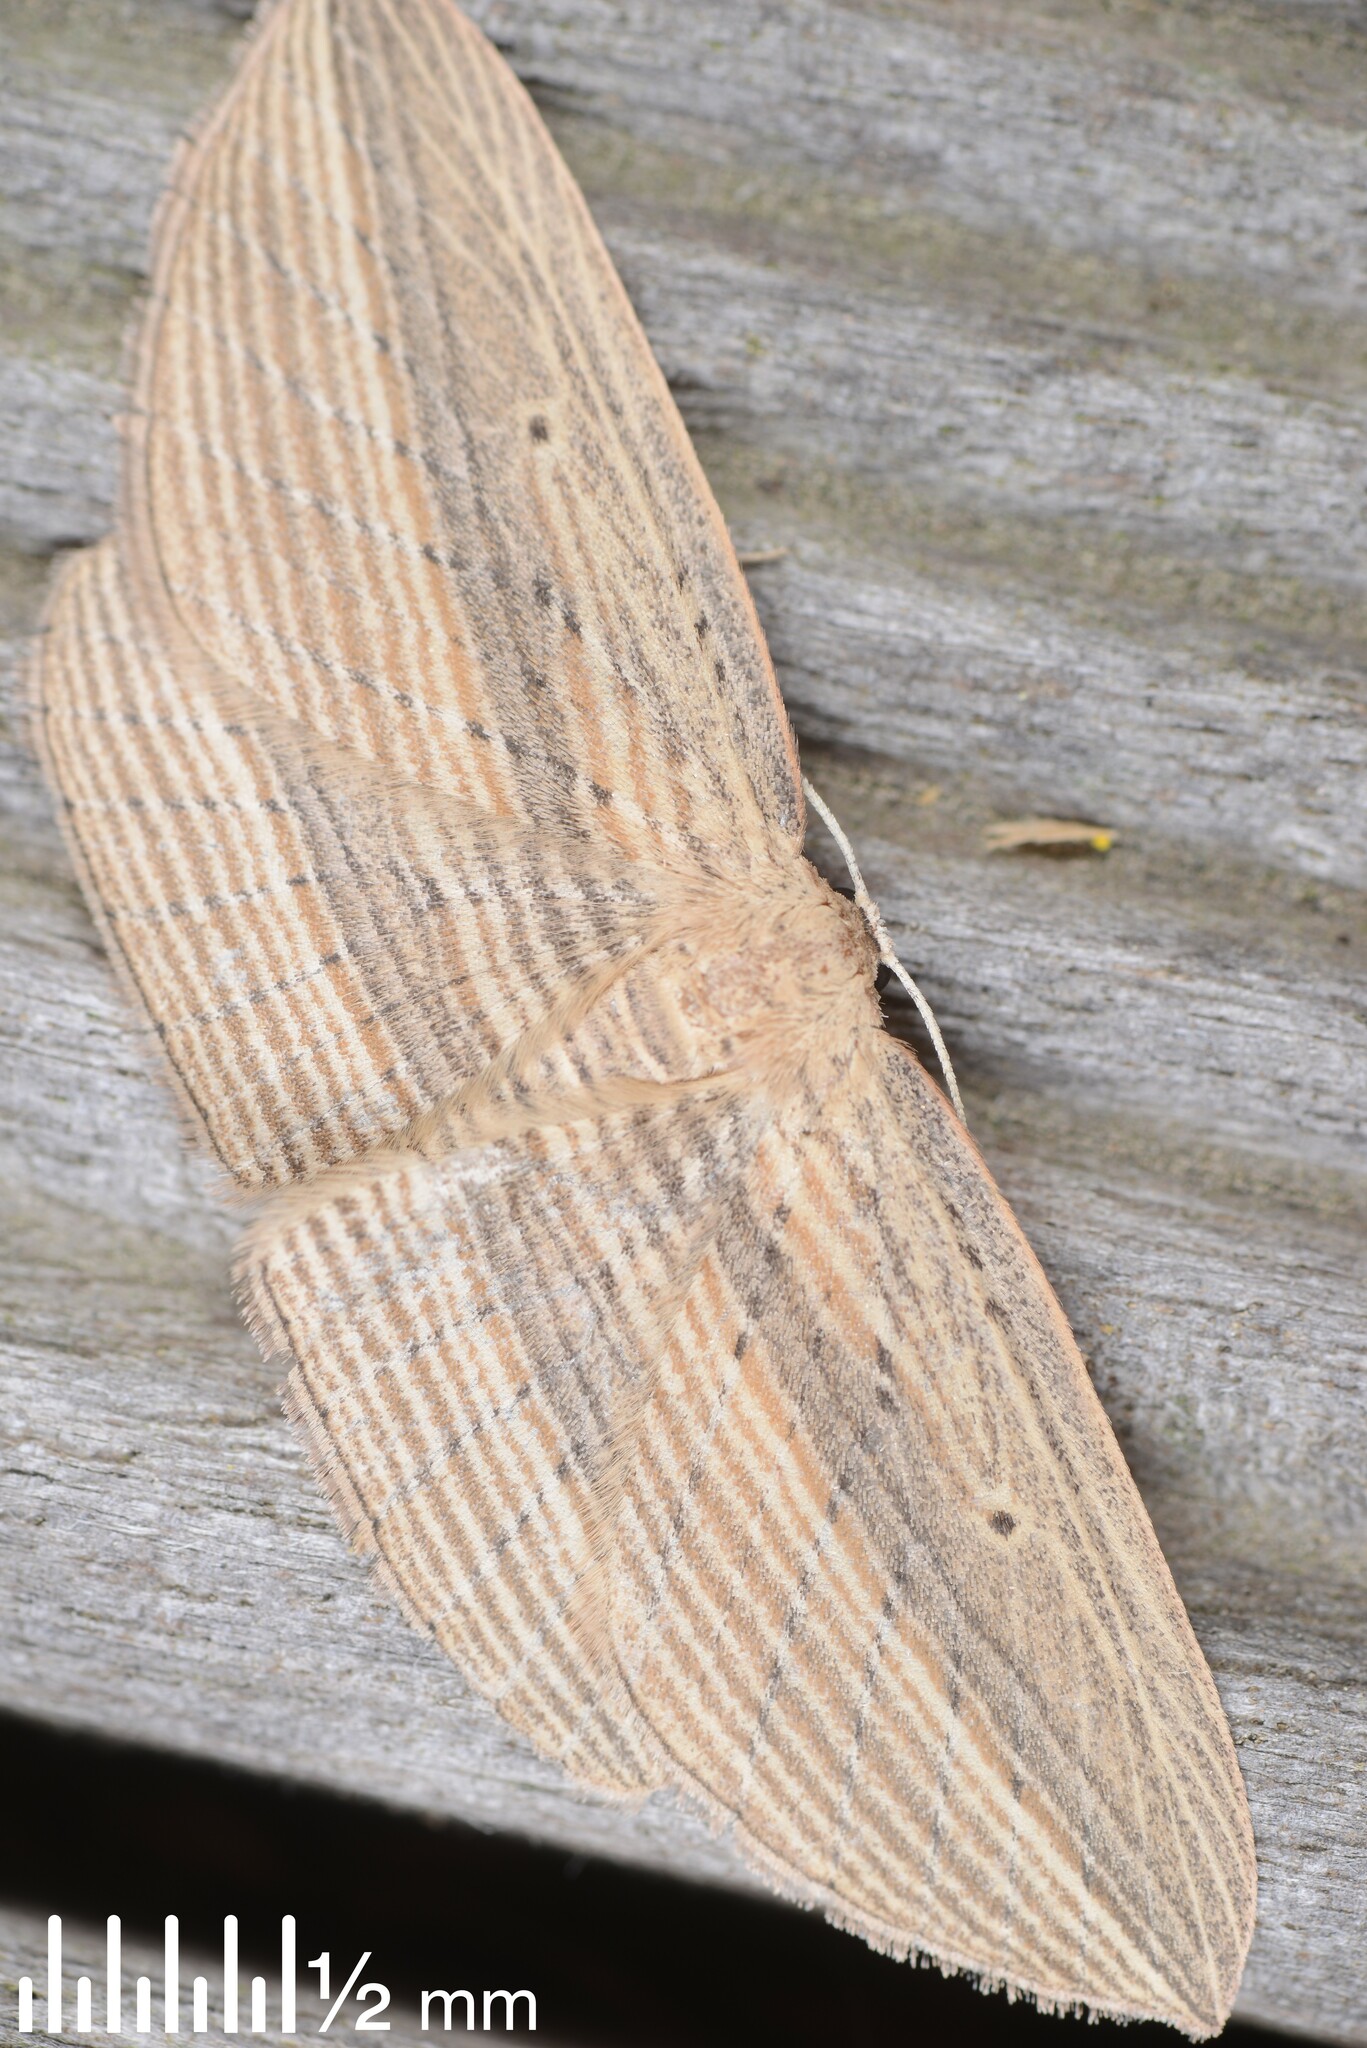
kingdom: Animalia
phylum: Arthropoda
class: Insecta
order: Lepidoptera
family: Geometridae
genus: Epiphryne
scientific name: Epiphryne verriculata
